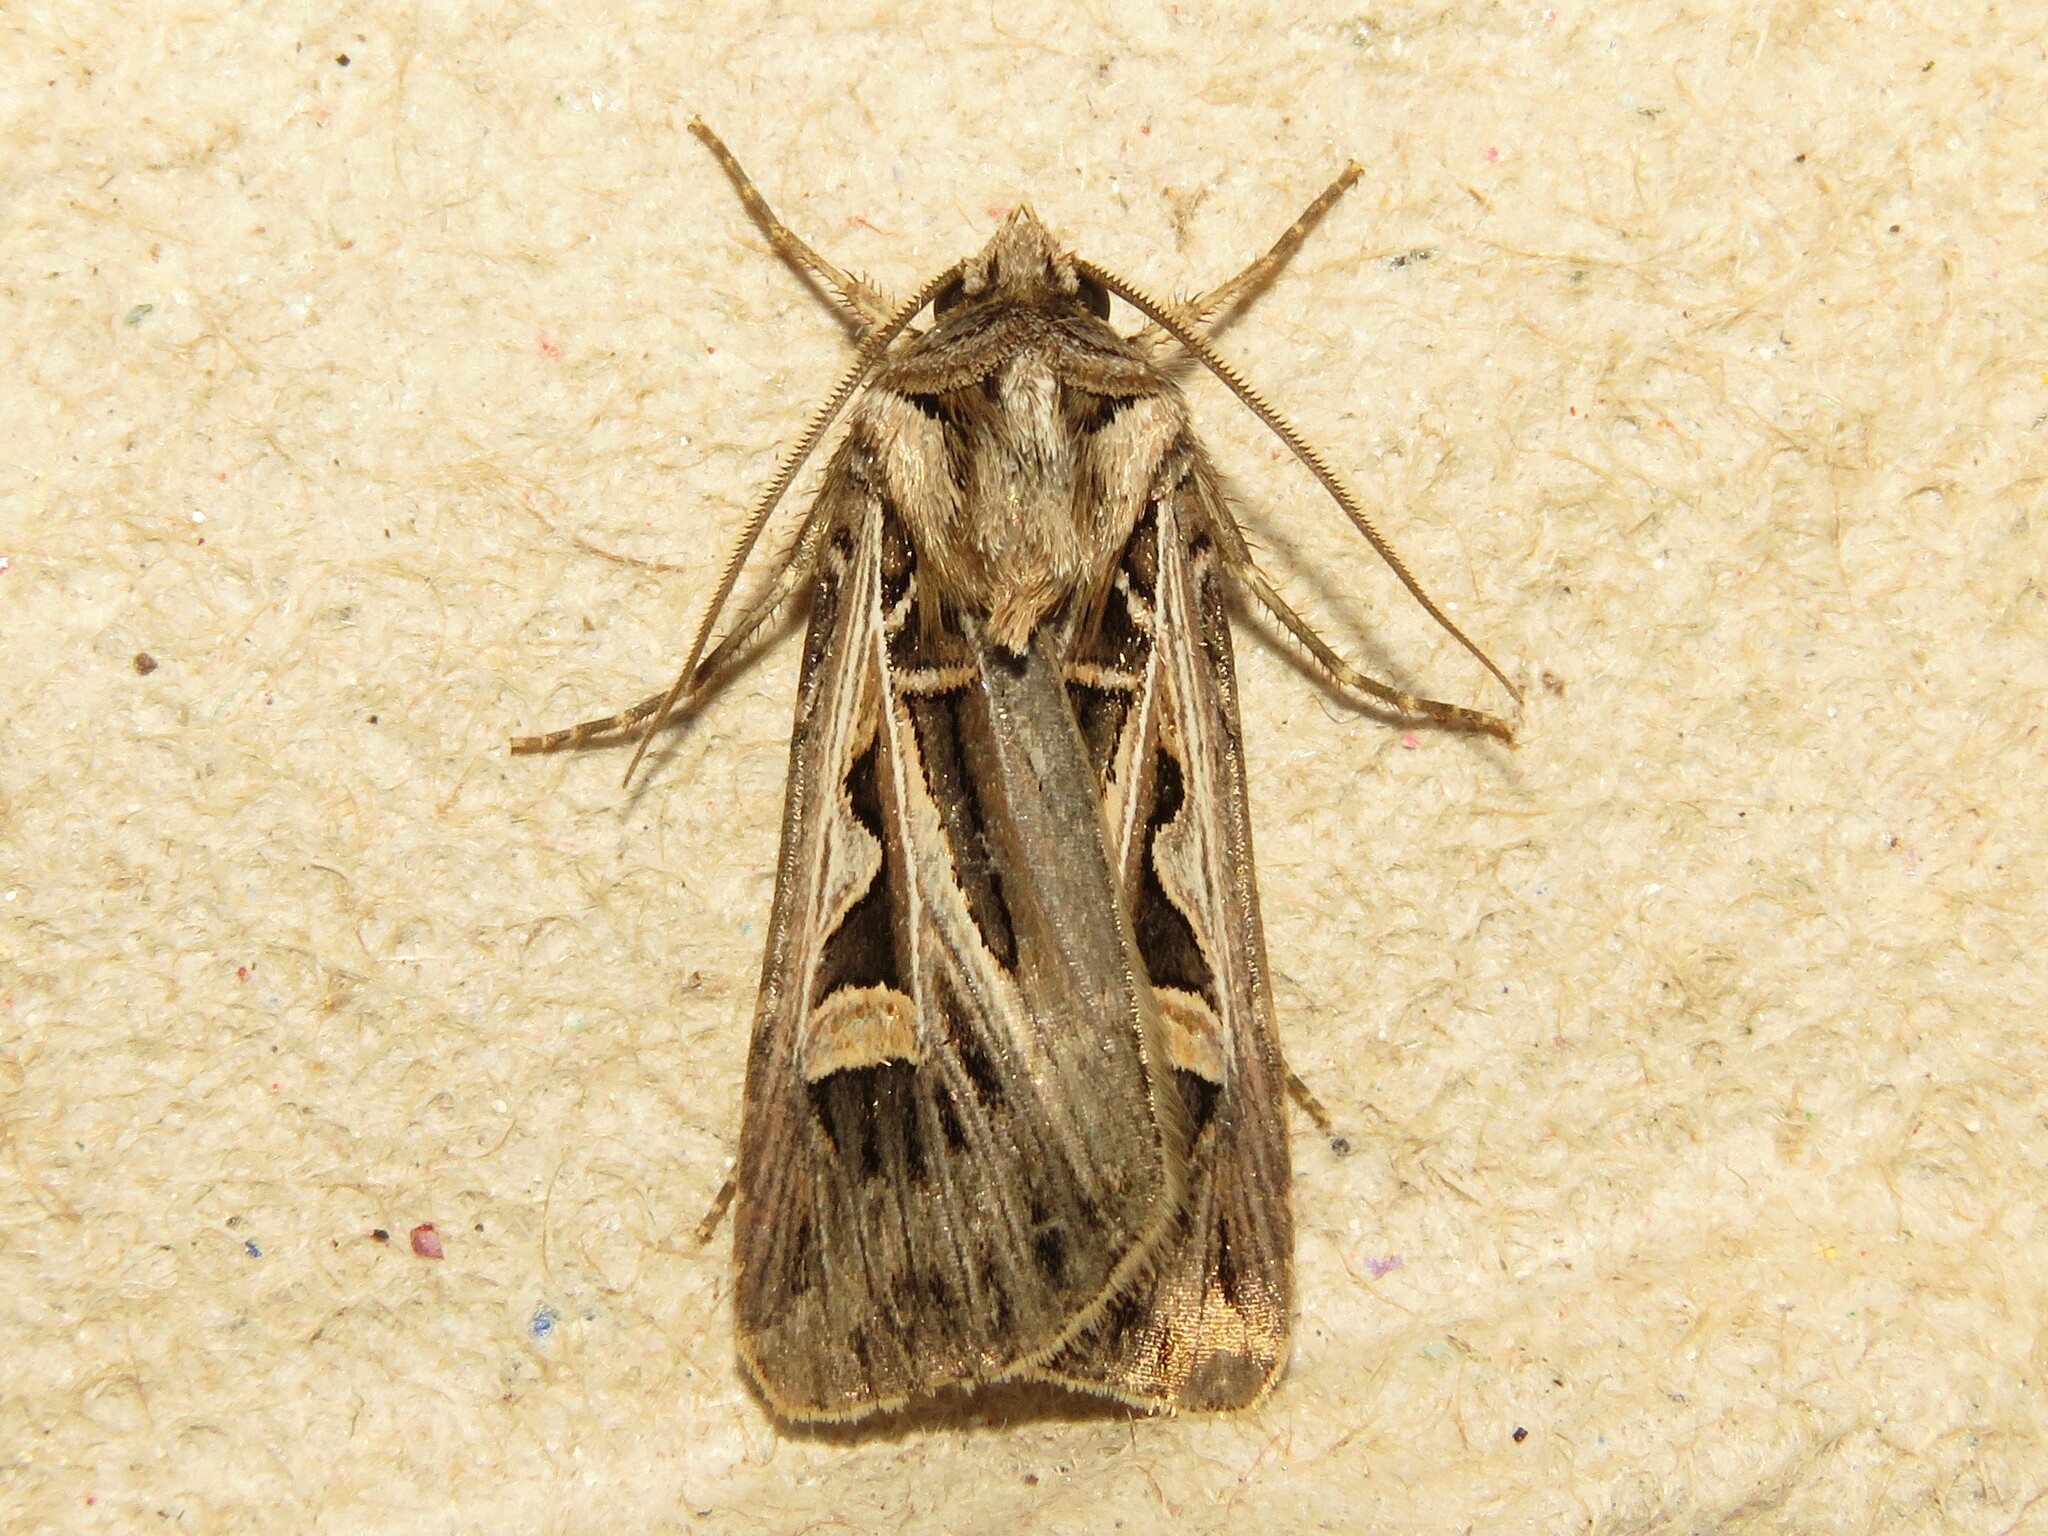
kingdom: Animalia
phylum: Arthropoda
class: Insecta
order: Lepidoptera
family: Noctuidae
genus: Feltia
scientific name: Feltia jaculifera
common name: Dingy cutworm moth
